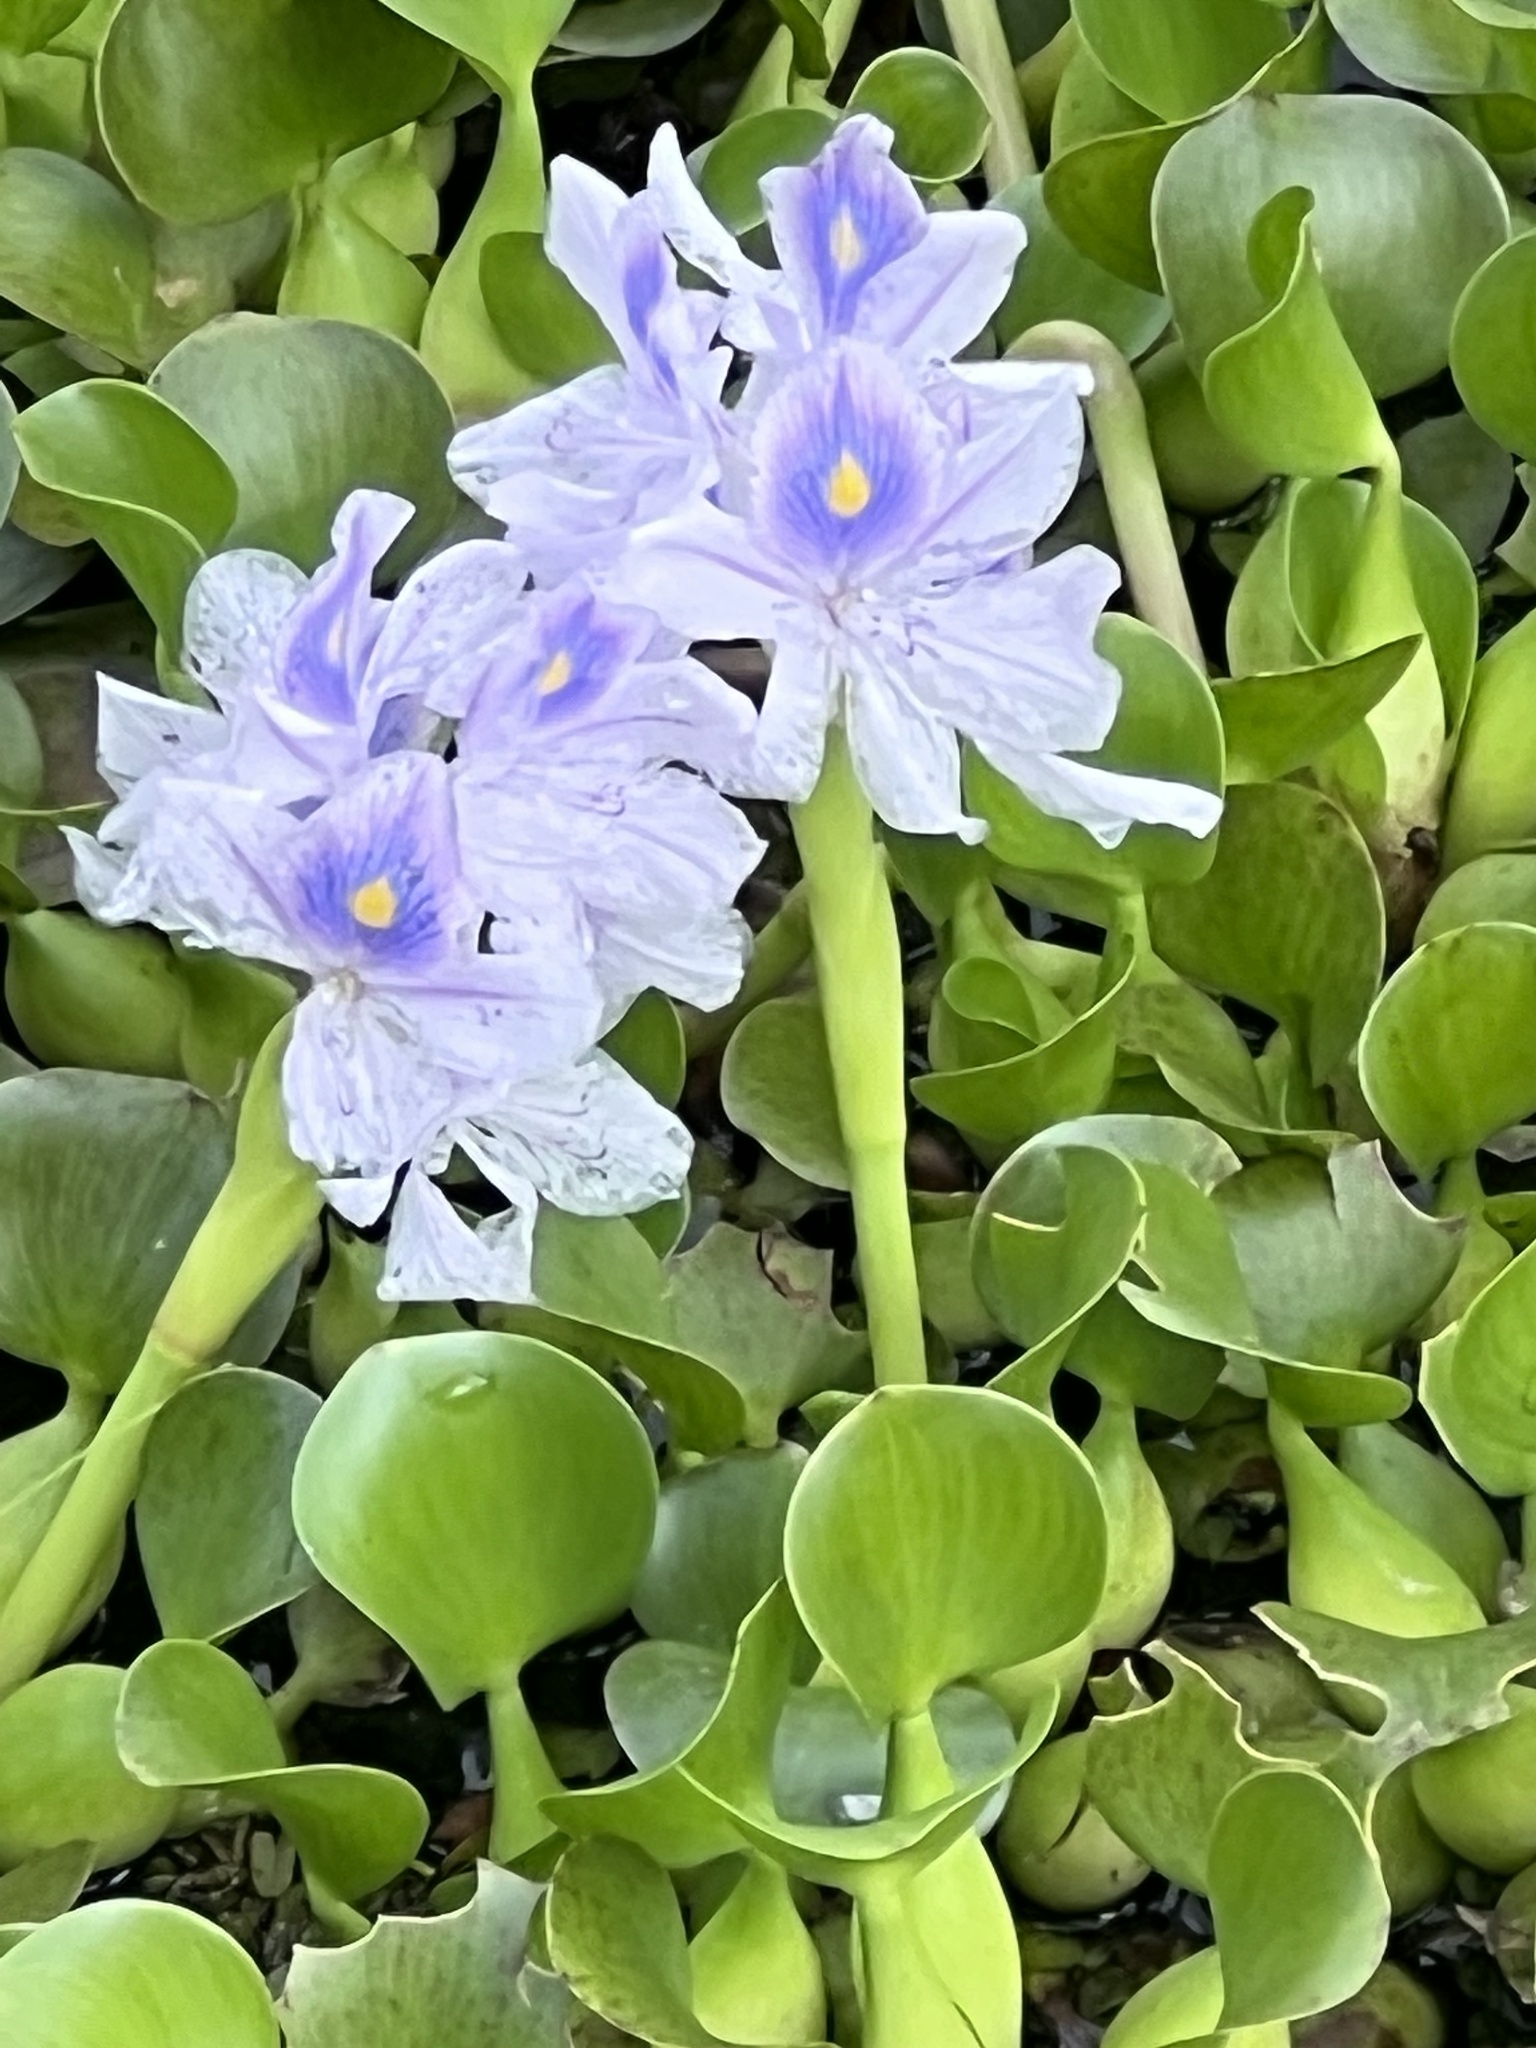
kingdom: Plantae
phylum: Tracheophyta
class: Liliopsida
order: Commelinales
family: Pontederiaceae
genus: Pontederia
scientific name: Pontederia crassipes
